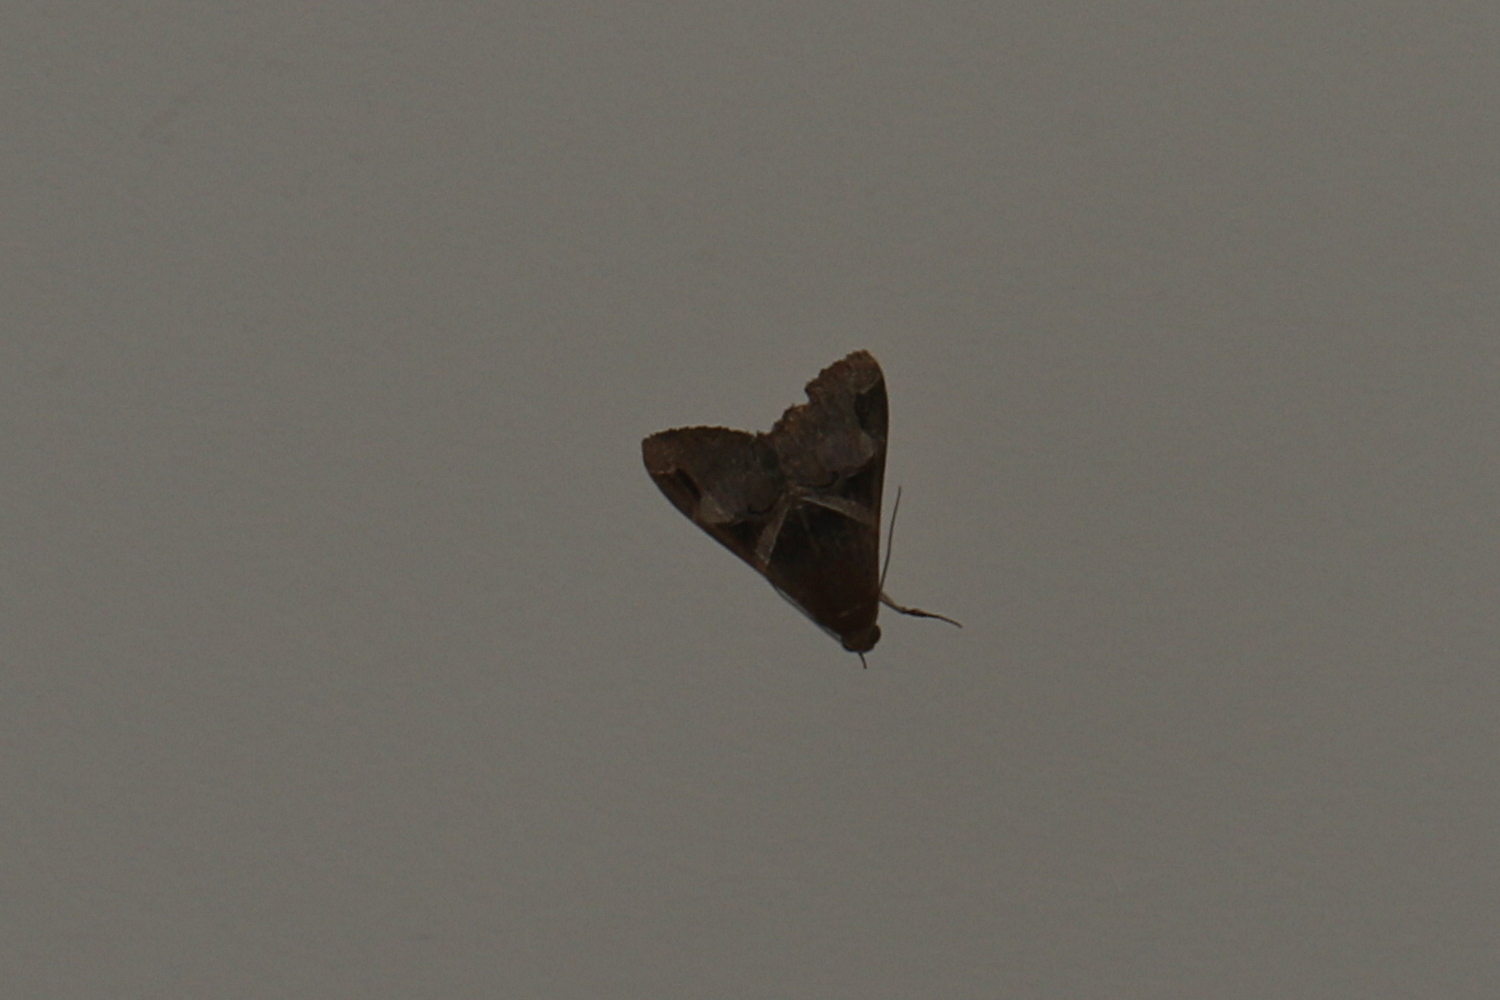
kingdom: Animalia
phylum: Arthropoda
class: Insecta
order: Lepidoptera
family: Erebidae
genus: Melipotis
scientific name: Melipotis fasciolaris
